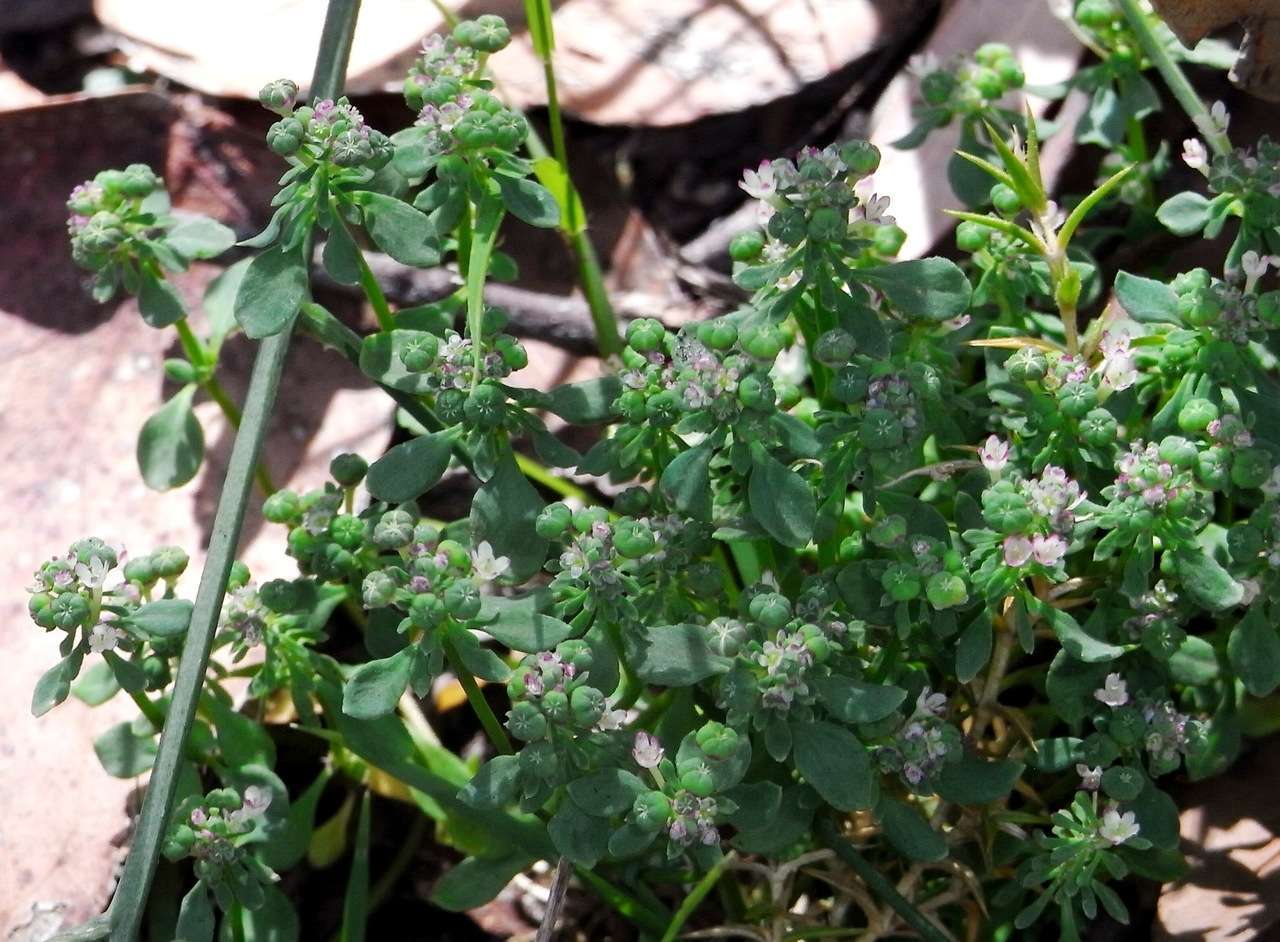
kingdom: Plantae
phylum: Tracheophyta
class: Magnoliopsida
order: Malpighiales
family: Phyllanthaceae
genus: Poranthera
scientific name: Poranthera microphylla
